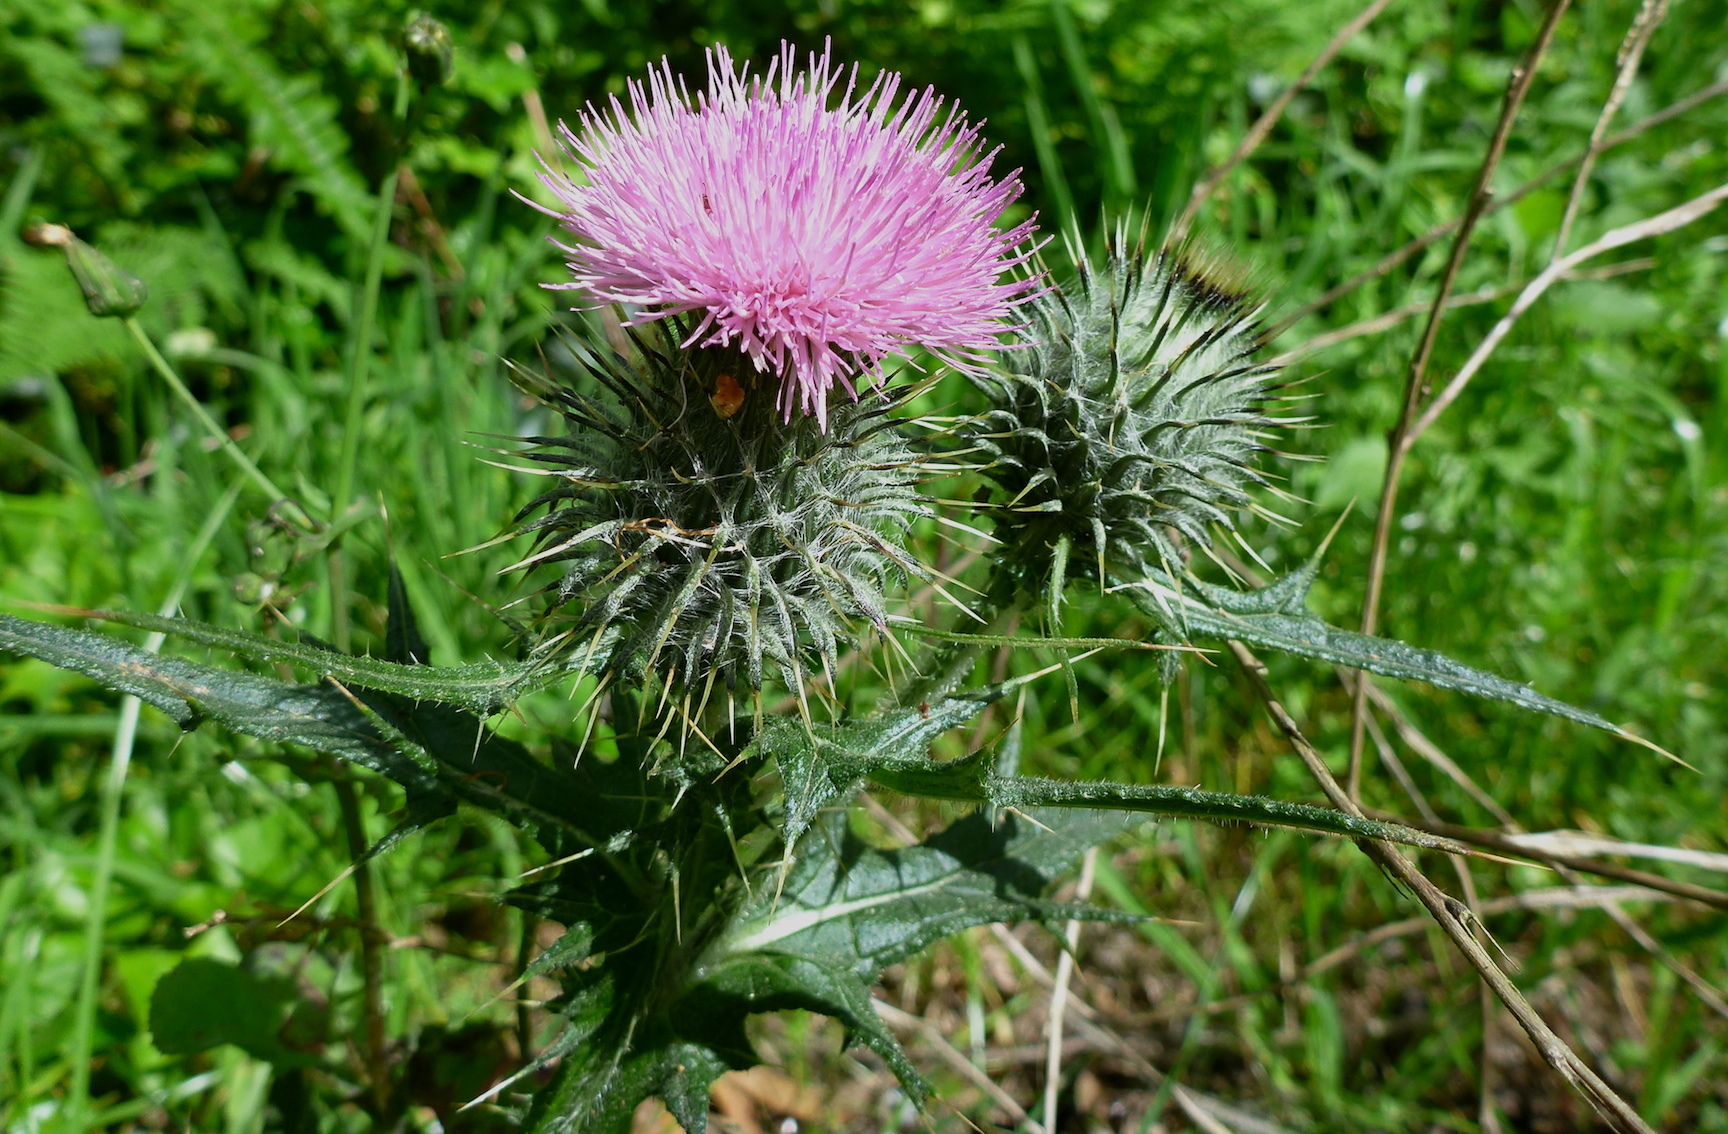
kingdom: Plantae
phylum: Tracheophyta
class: Magnoliopsida
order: Asterales
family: Asteraceae
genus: Cirsium
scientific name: Cirsium vulgare
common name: Bull thistle
